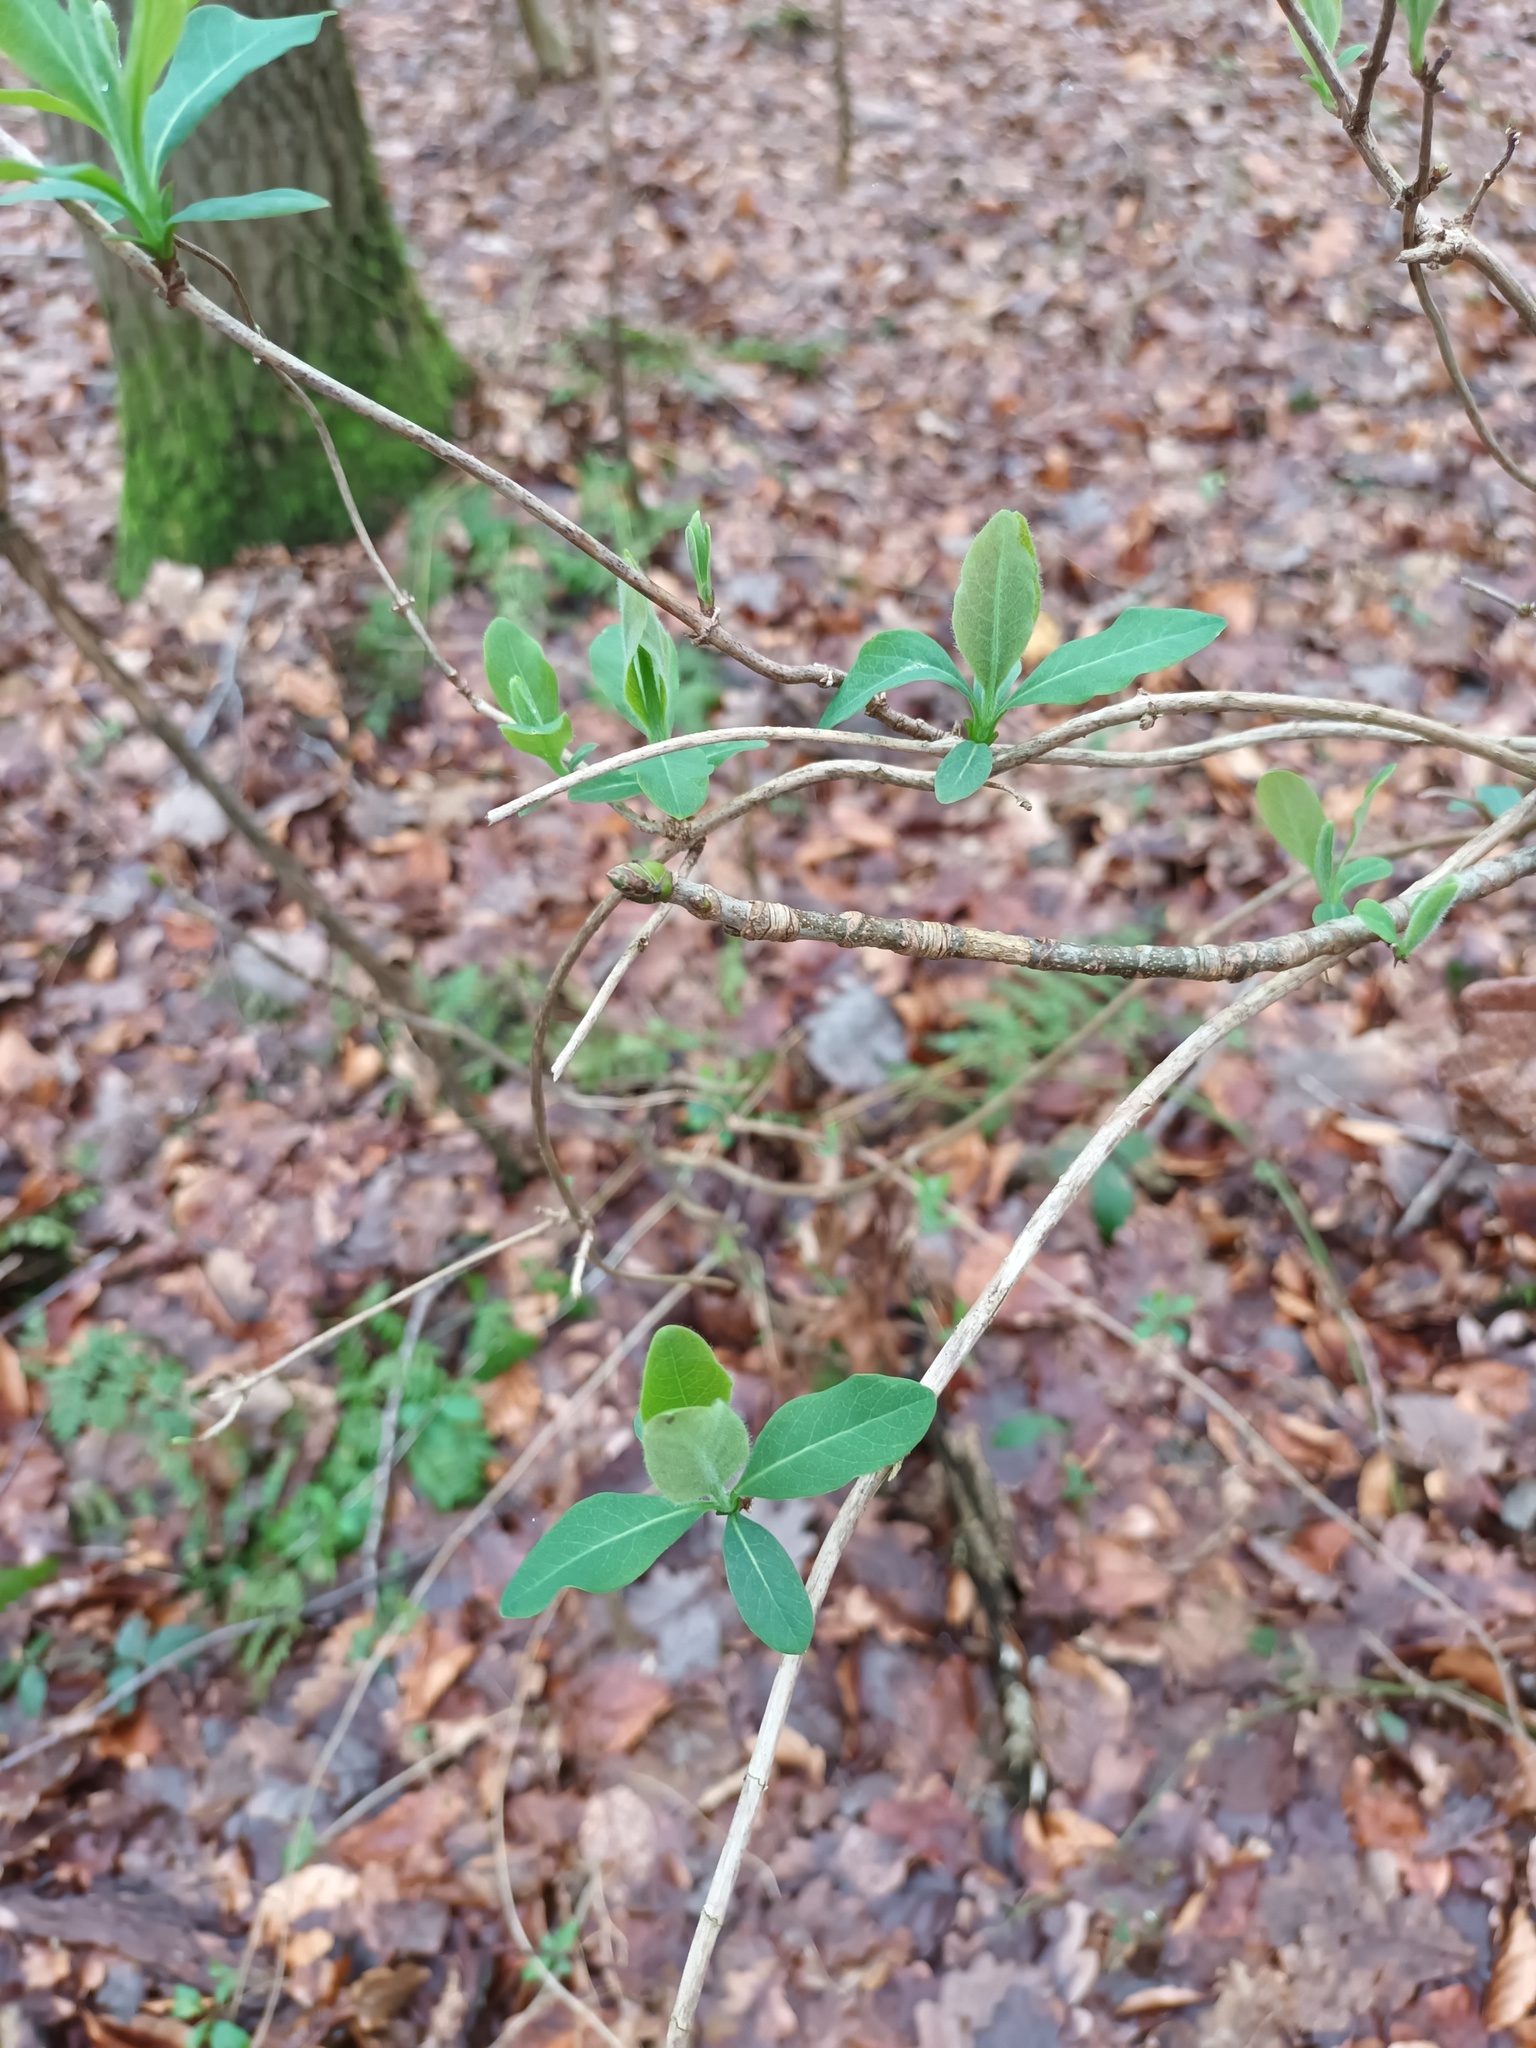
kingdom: Plantae
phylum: Tracheophyta
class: Magnoliopsida
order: Dipsacales
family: Caprifoliaceae
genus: Lonicera
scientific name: Lonicera periclymenum
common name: European honeysuckle
